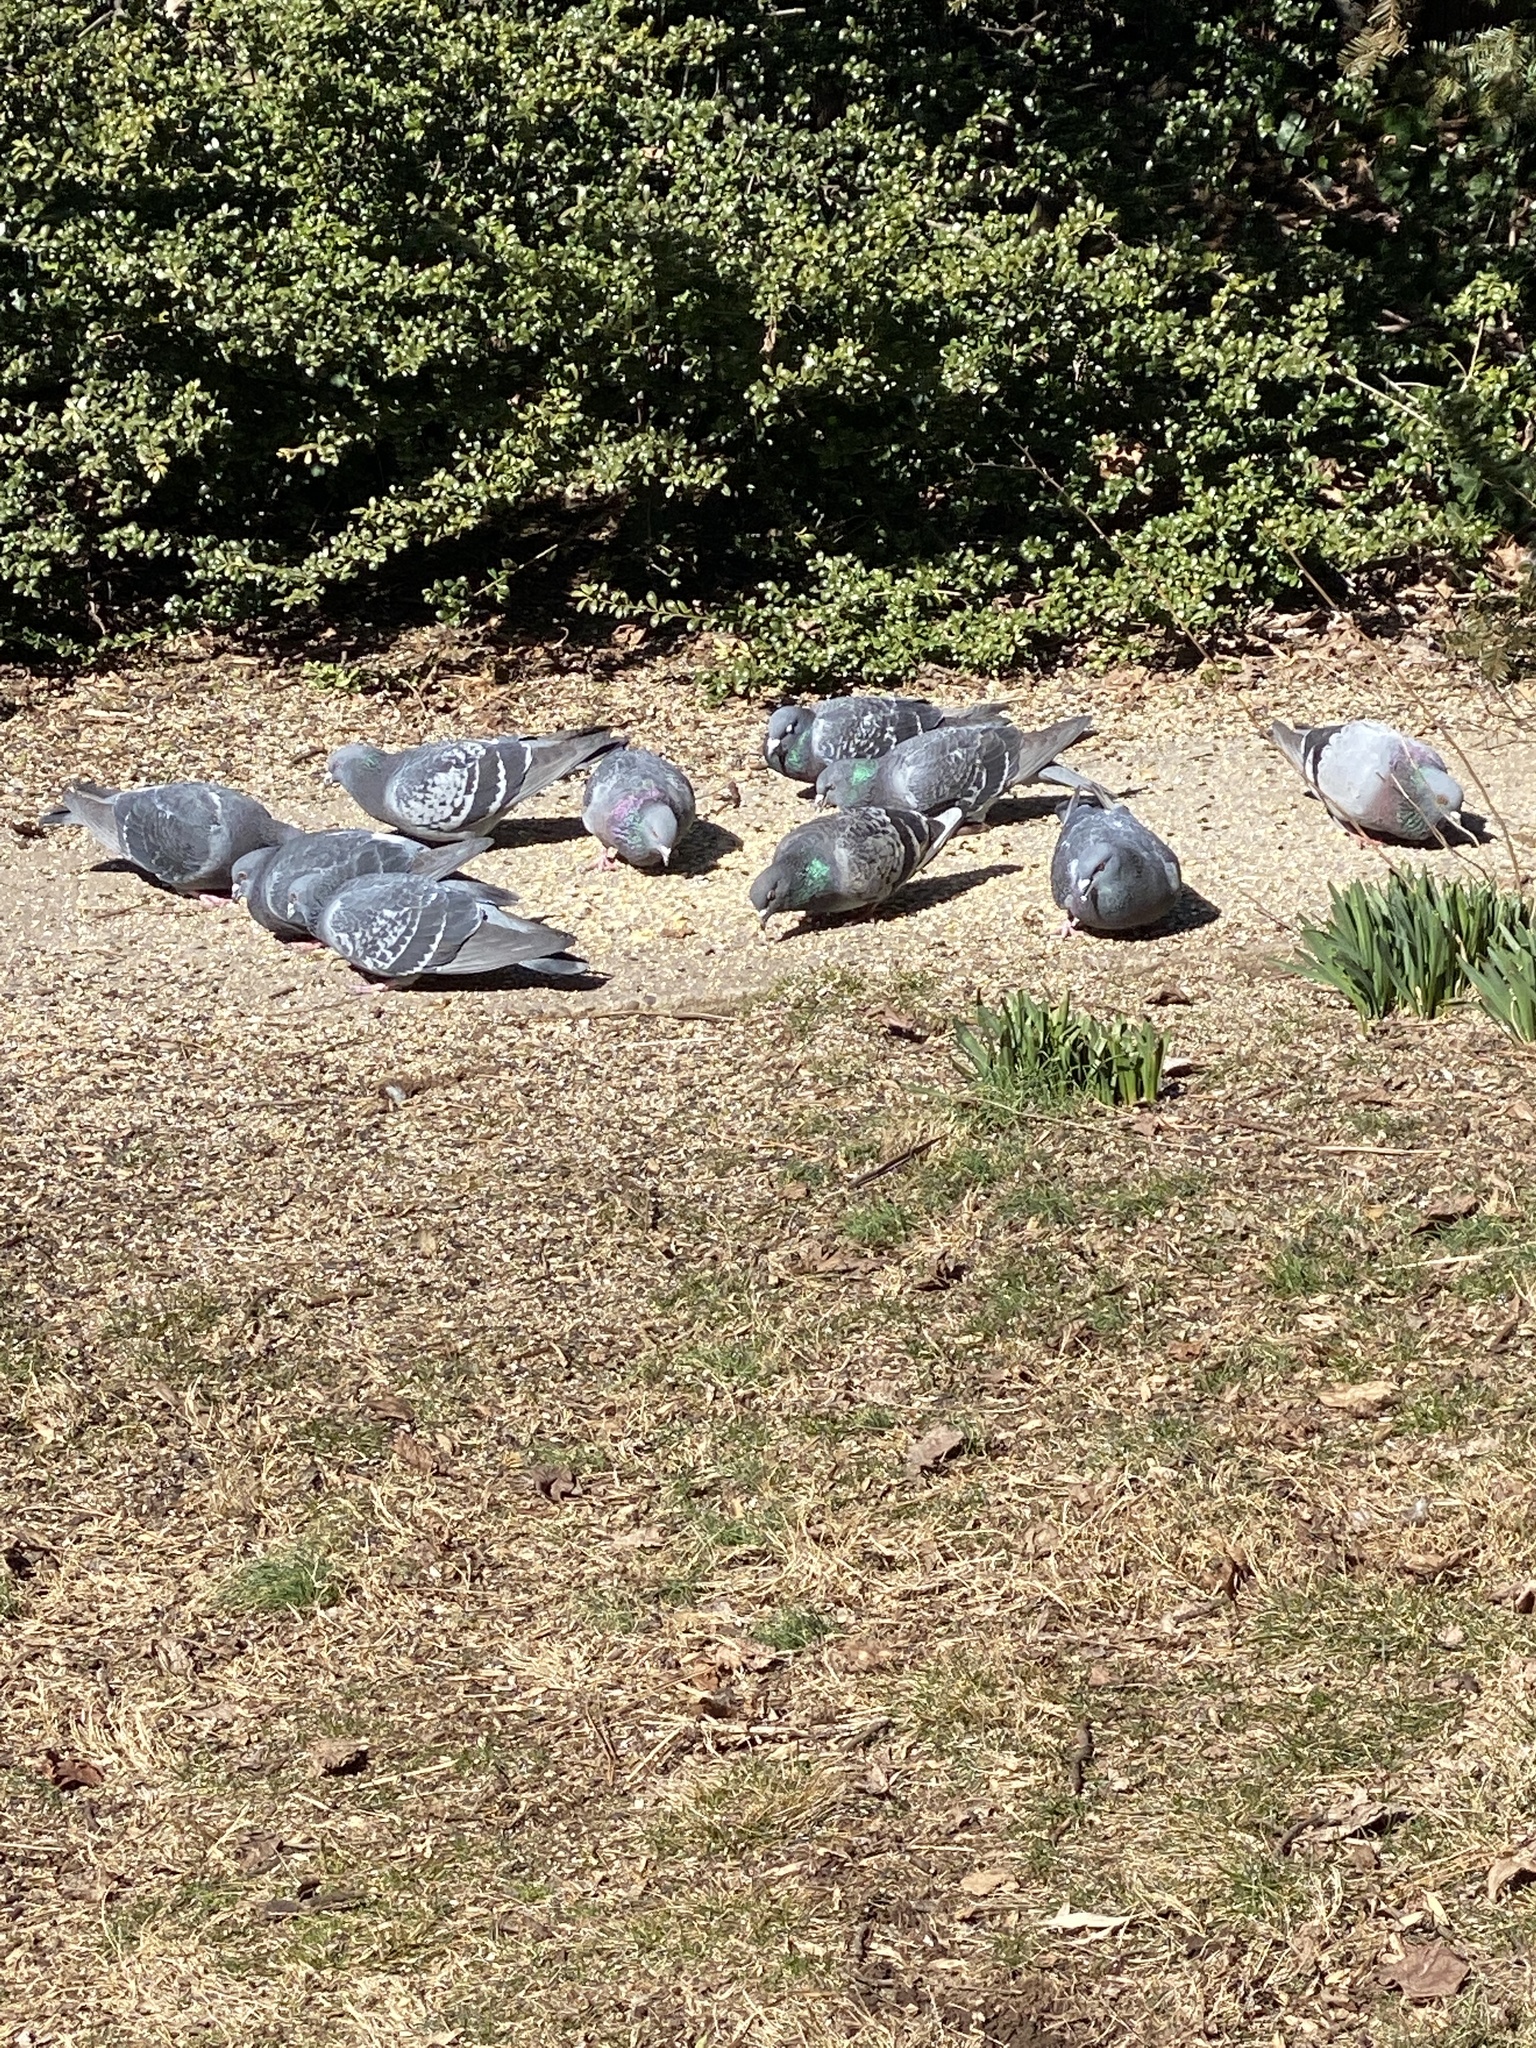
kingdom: Animalia
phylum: Chordata
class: Aves
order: Columbiformes
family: Columbidae
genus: Columba
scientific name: Columba livia
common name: Rock pigeon
